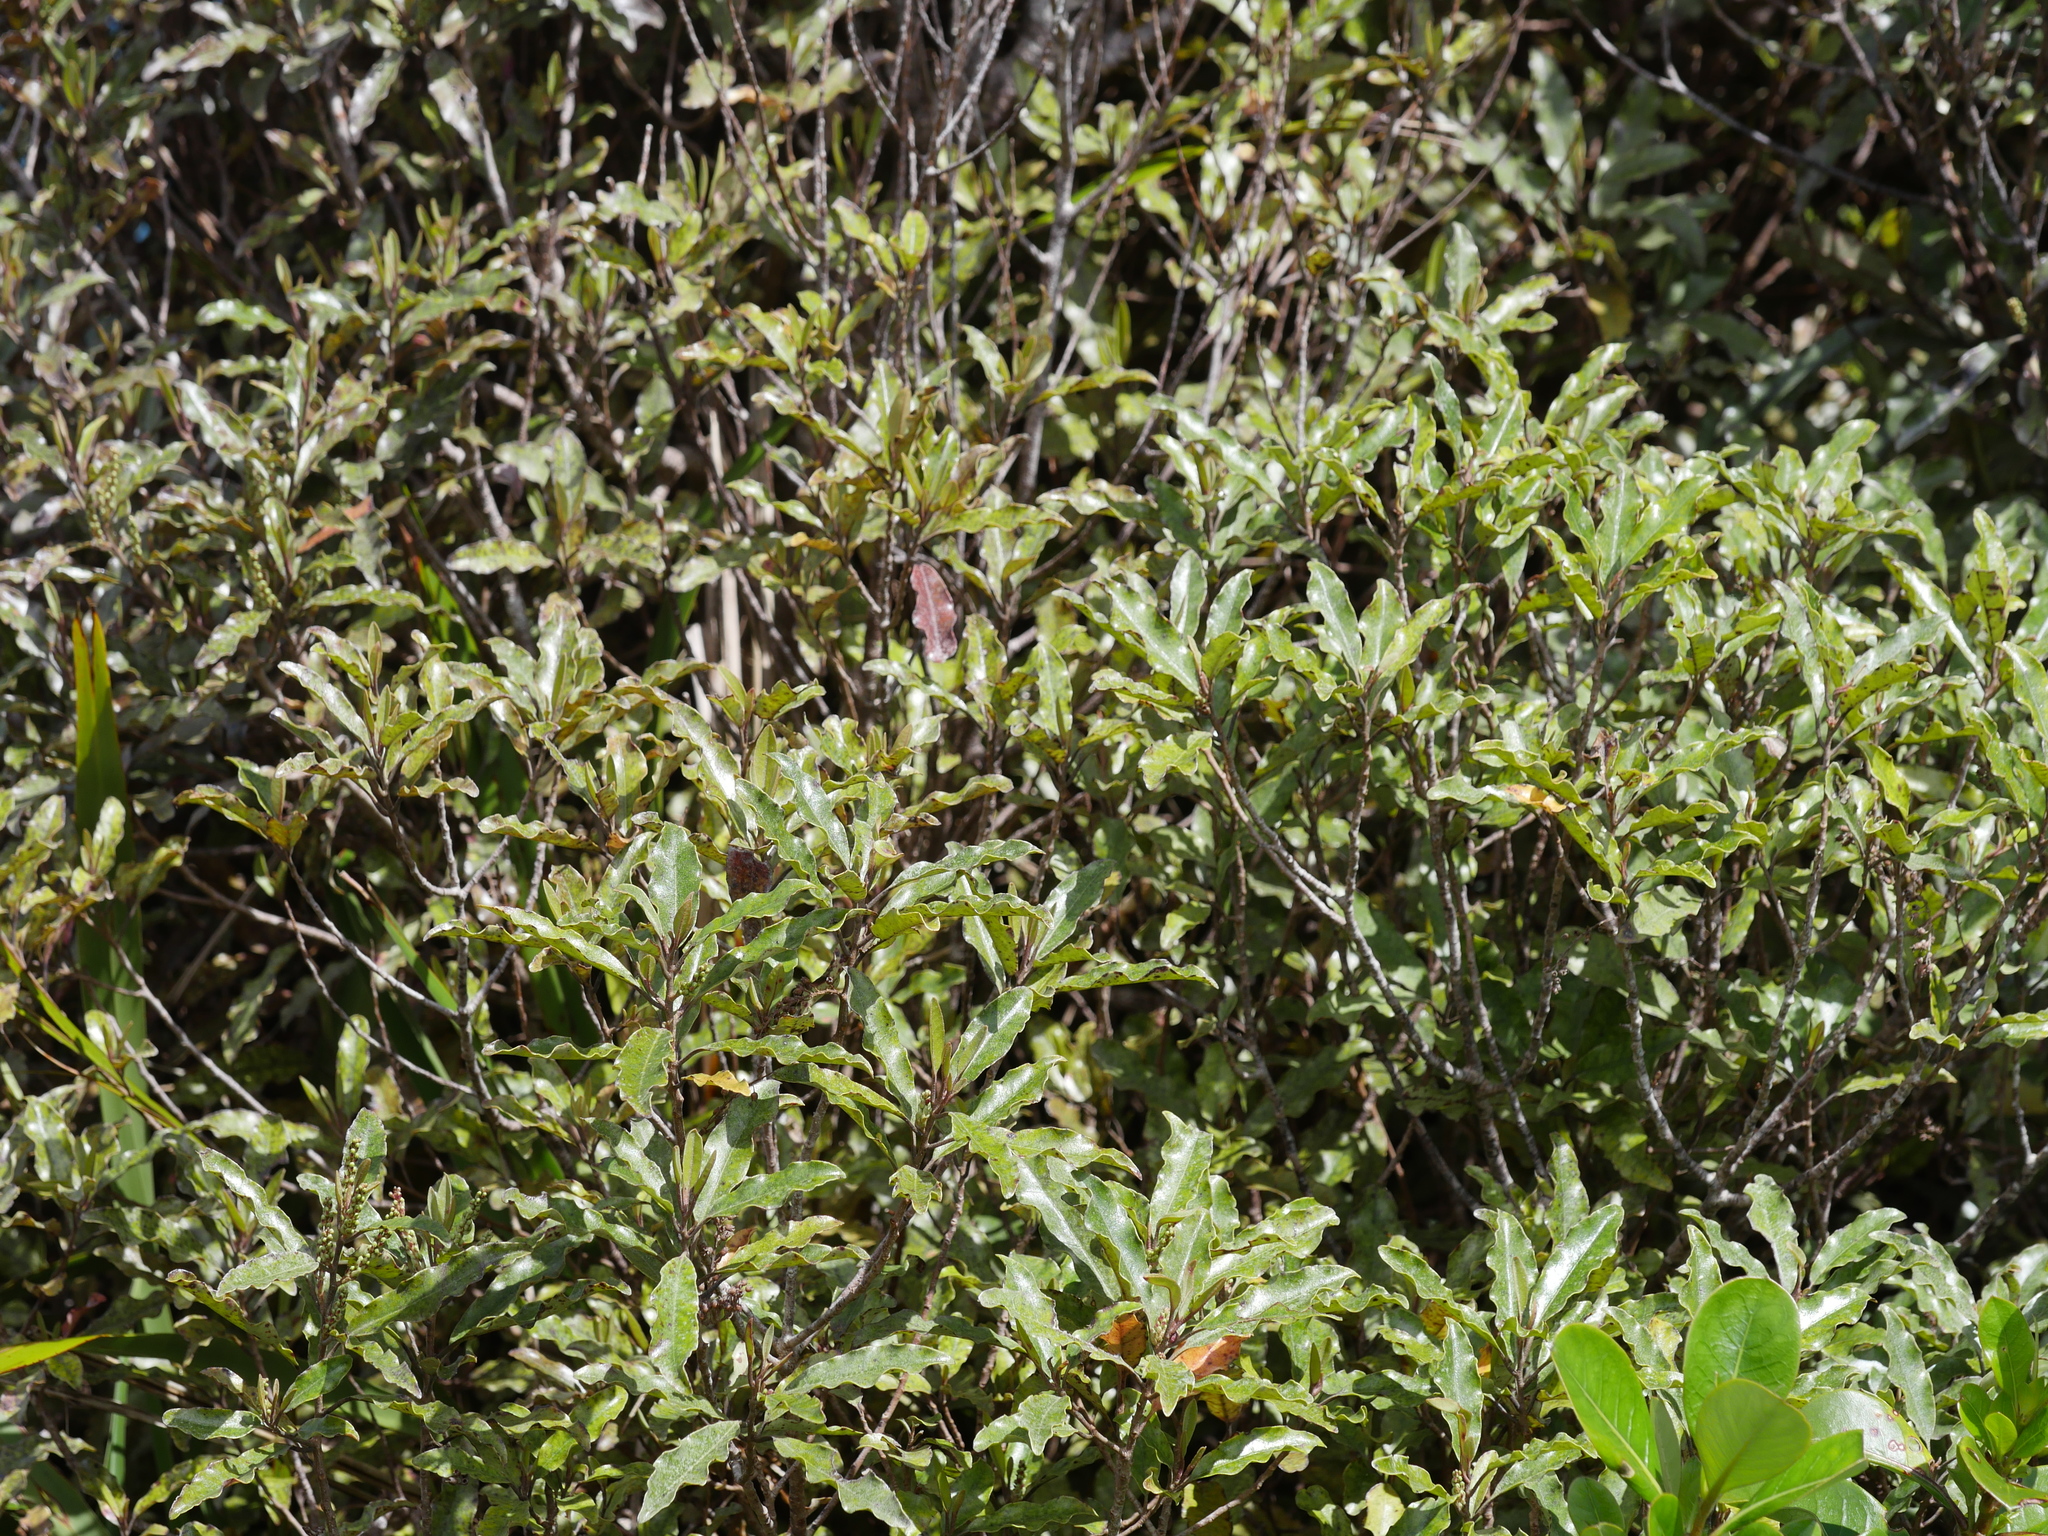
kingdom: Plantae
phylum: Tracheophyta
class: Magnoliopsida
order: Paracryphiales
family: Paracryphiaceae
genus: Quintinia
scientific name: Quintinia serrata
